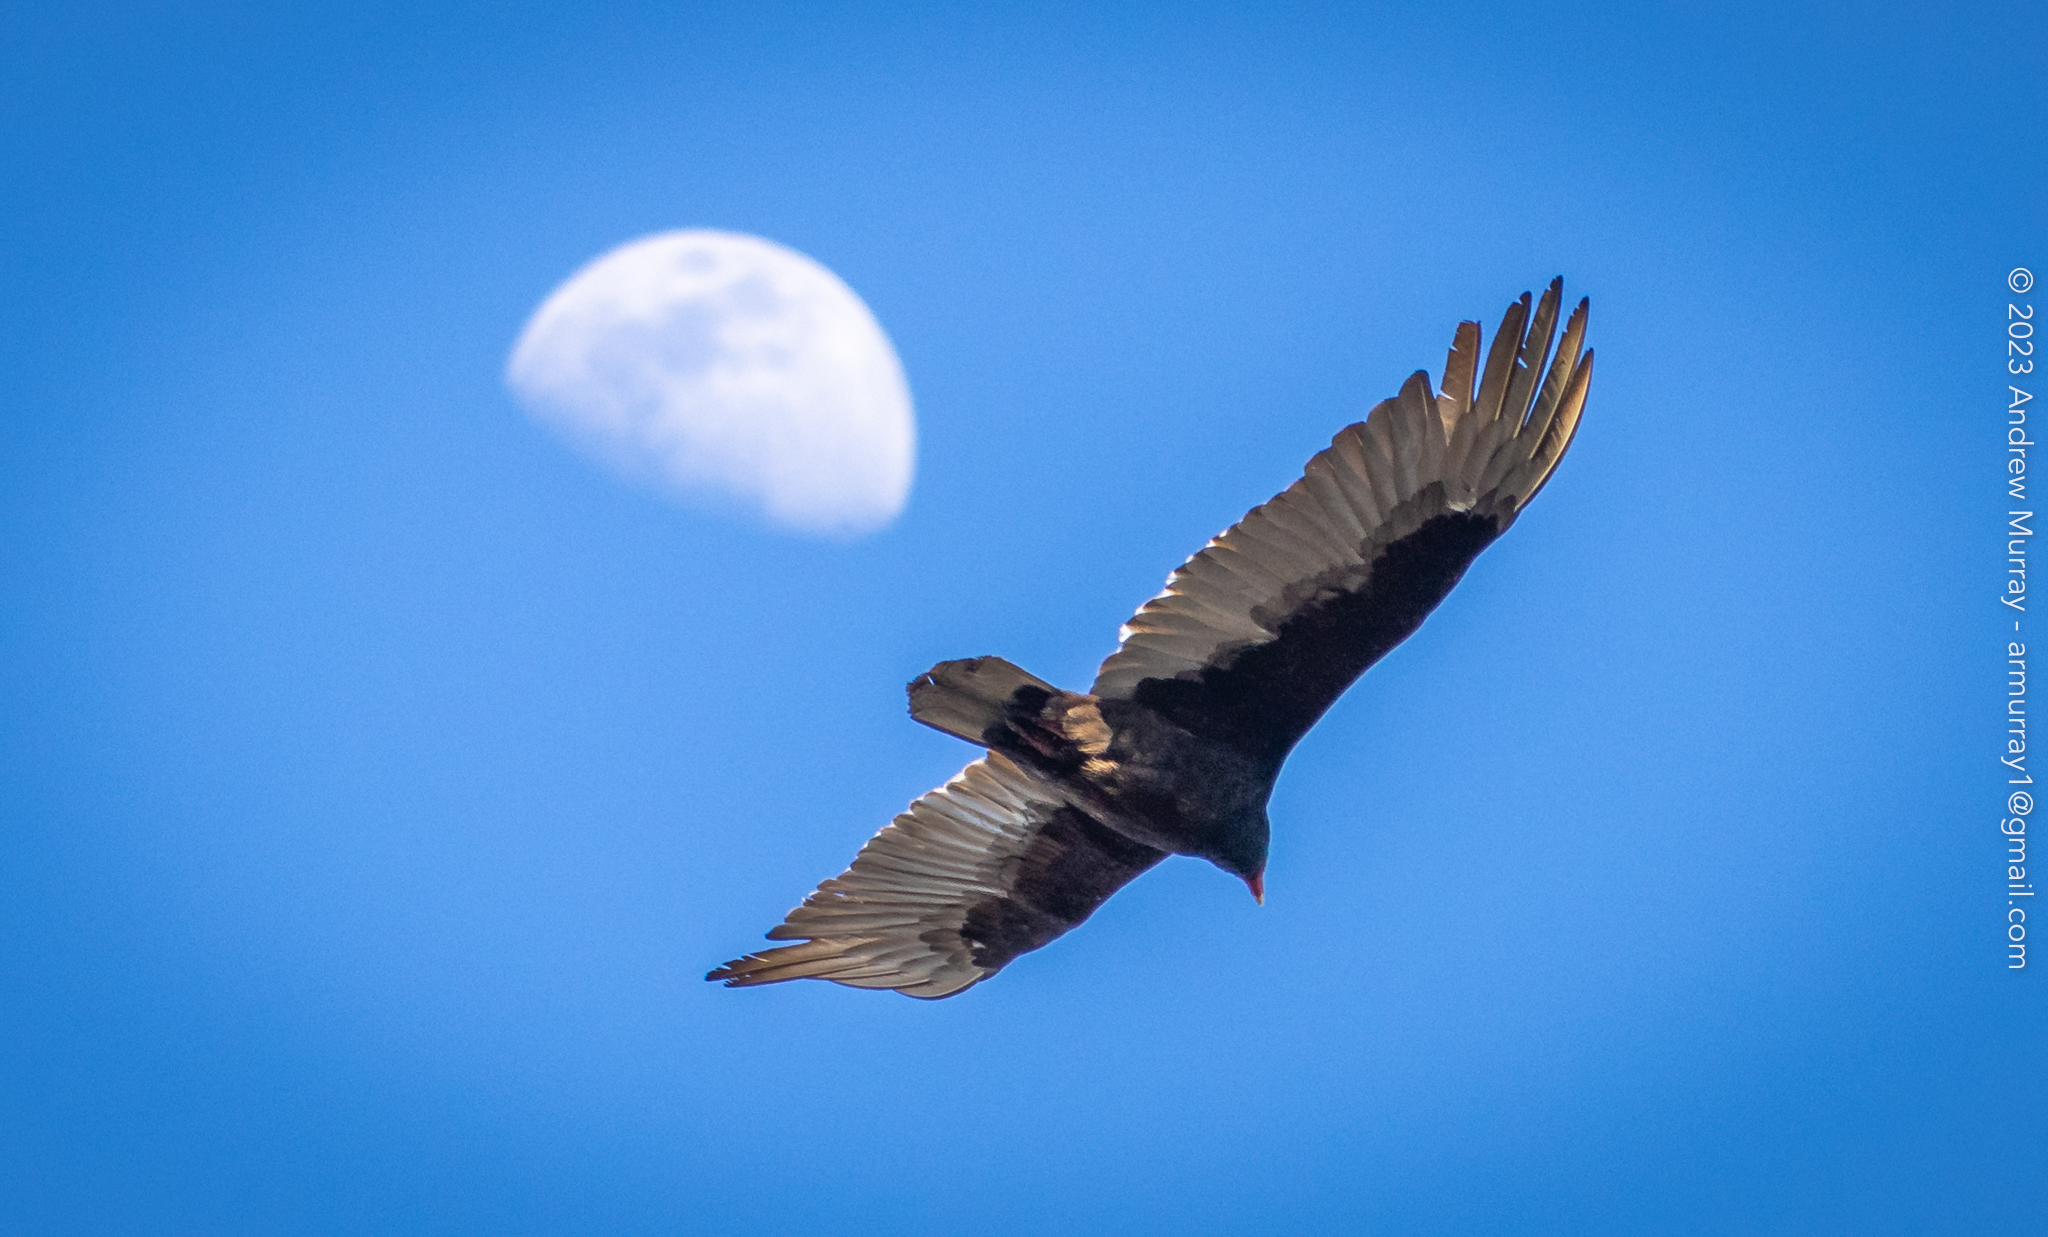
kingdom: Animalia
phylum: Chordata
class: Aves
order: Accipitriformes
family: Cathartidae
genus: Cathartes
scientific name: Cathartes aura
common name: Turkey vulture
